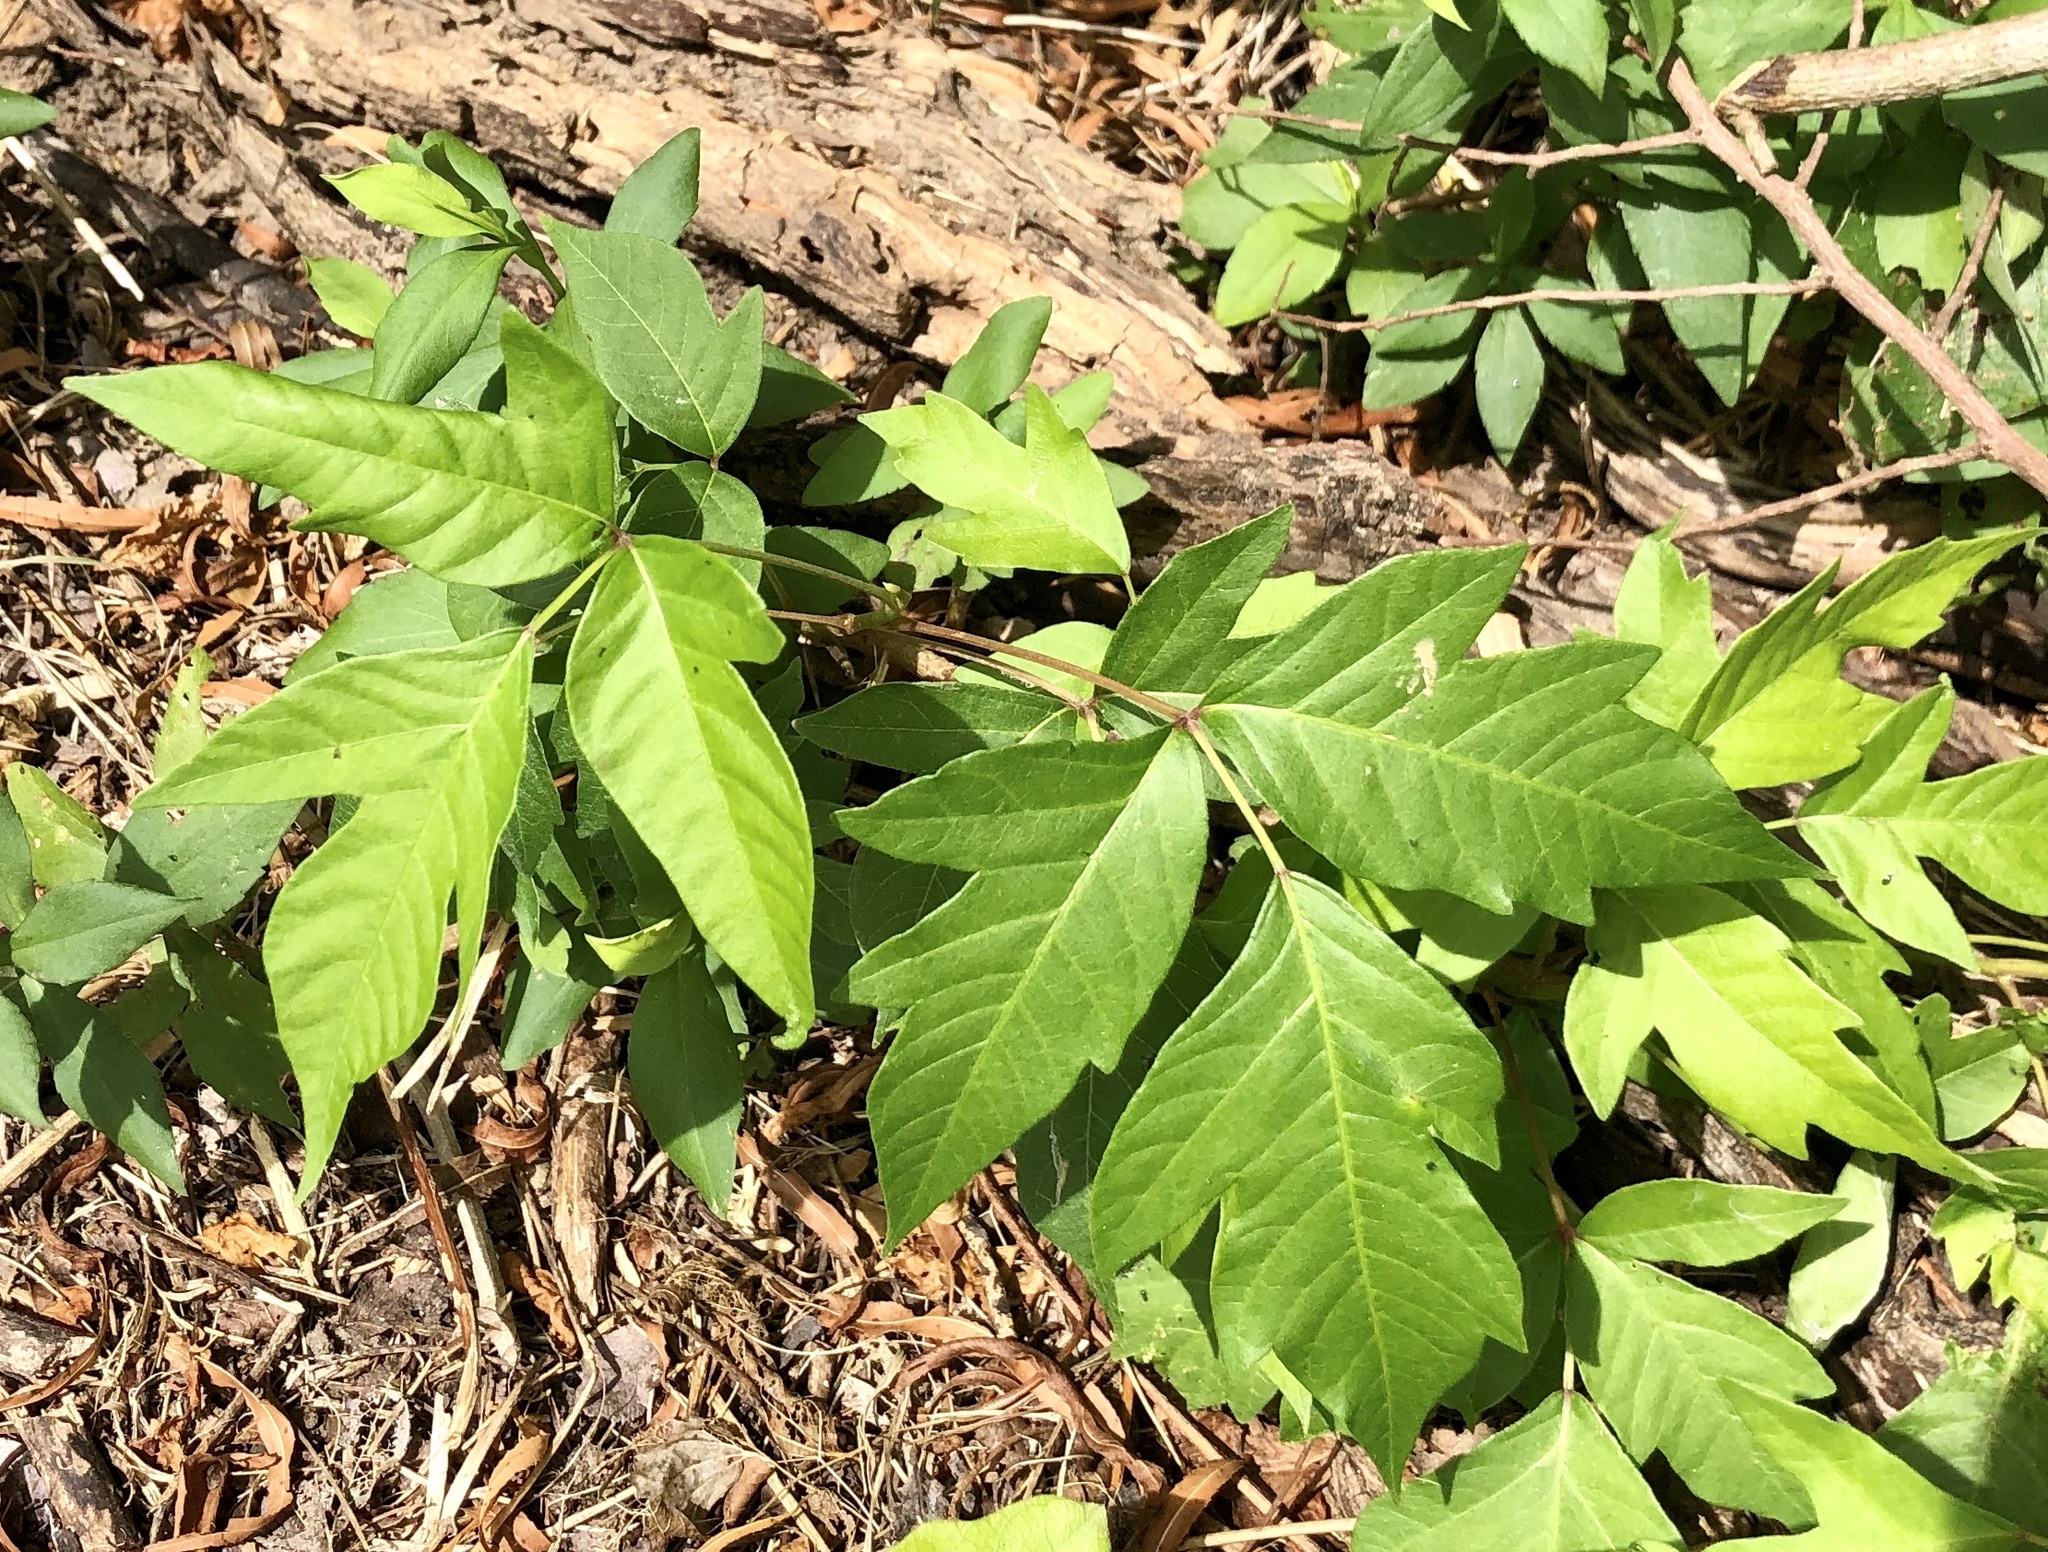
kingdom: Plantae
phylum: Tracheophyta
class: Magnoliopsida
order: Sapindales
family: Anacardiaceae
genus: Toxicodendron
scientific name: Toxicodendron radicans
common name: Poison ivy
